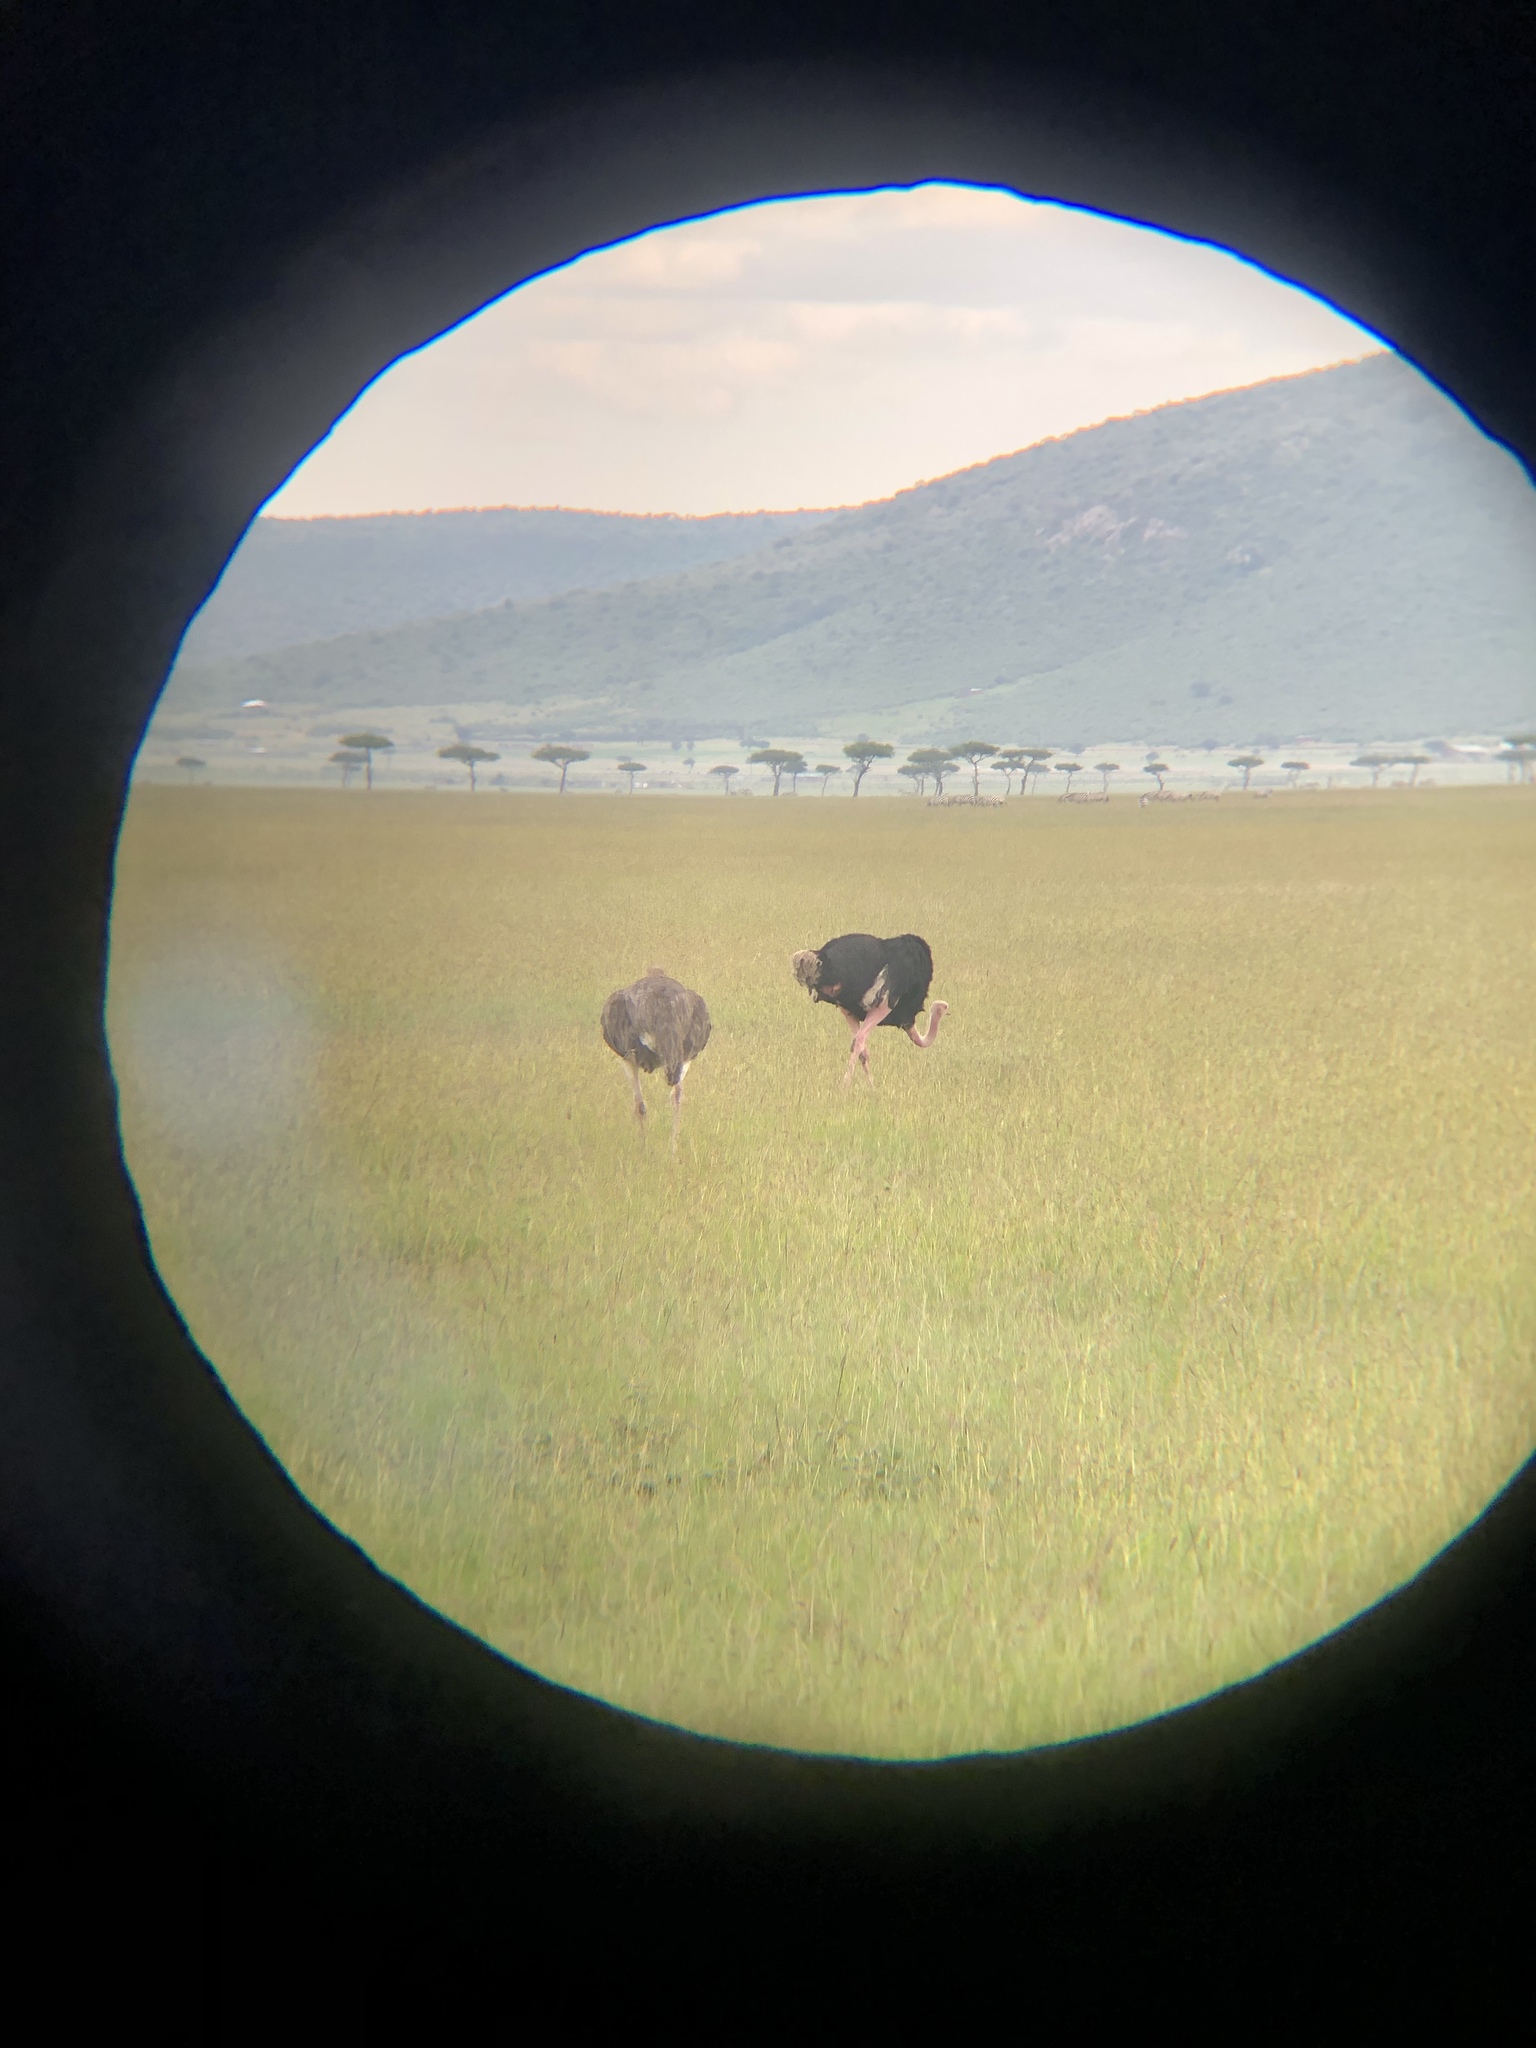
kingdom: Animalia
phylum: Chordata
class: Aves
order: Struthioniformes
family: Struthionidae
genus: Struthio
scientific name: Struthio camelus
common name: Common ostrich
